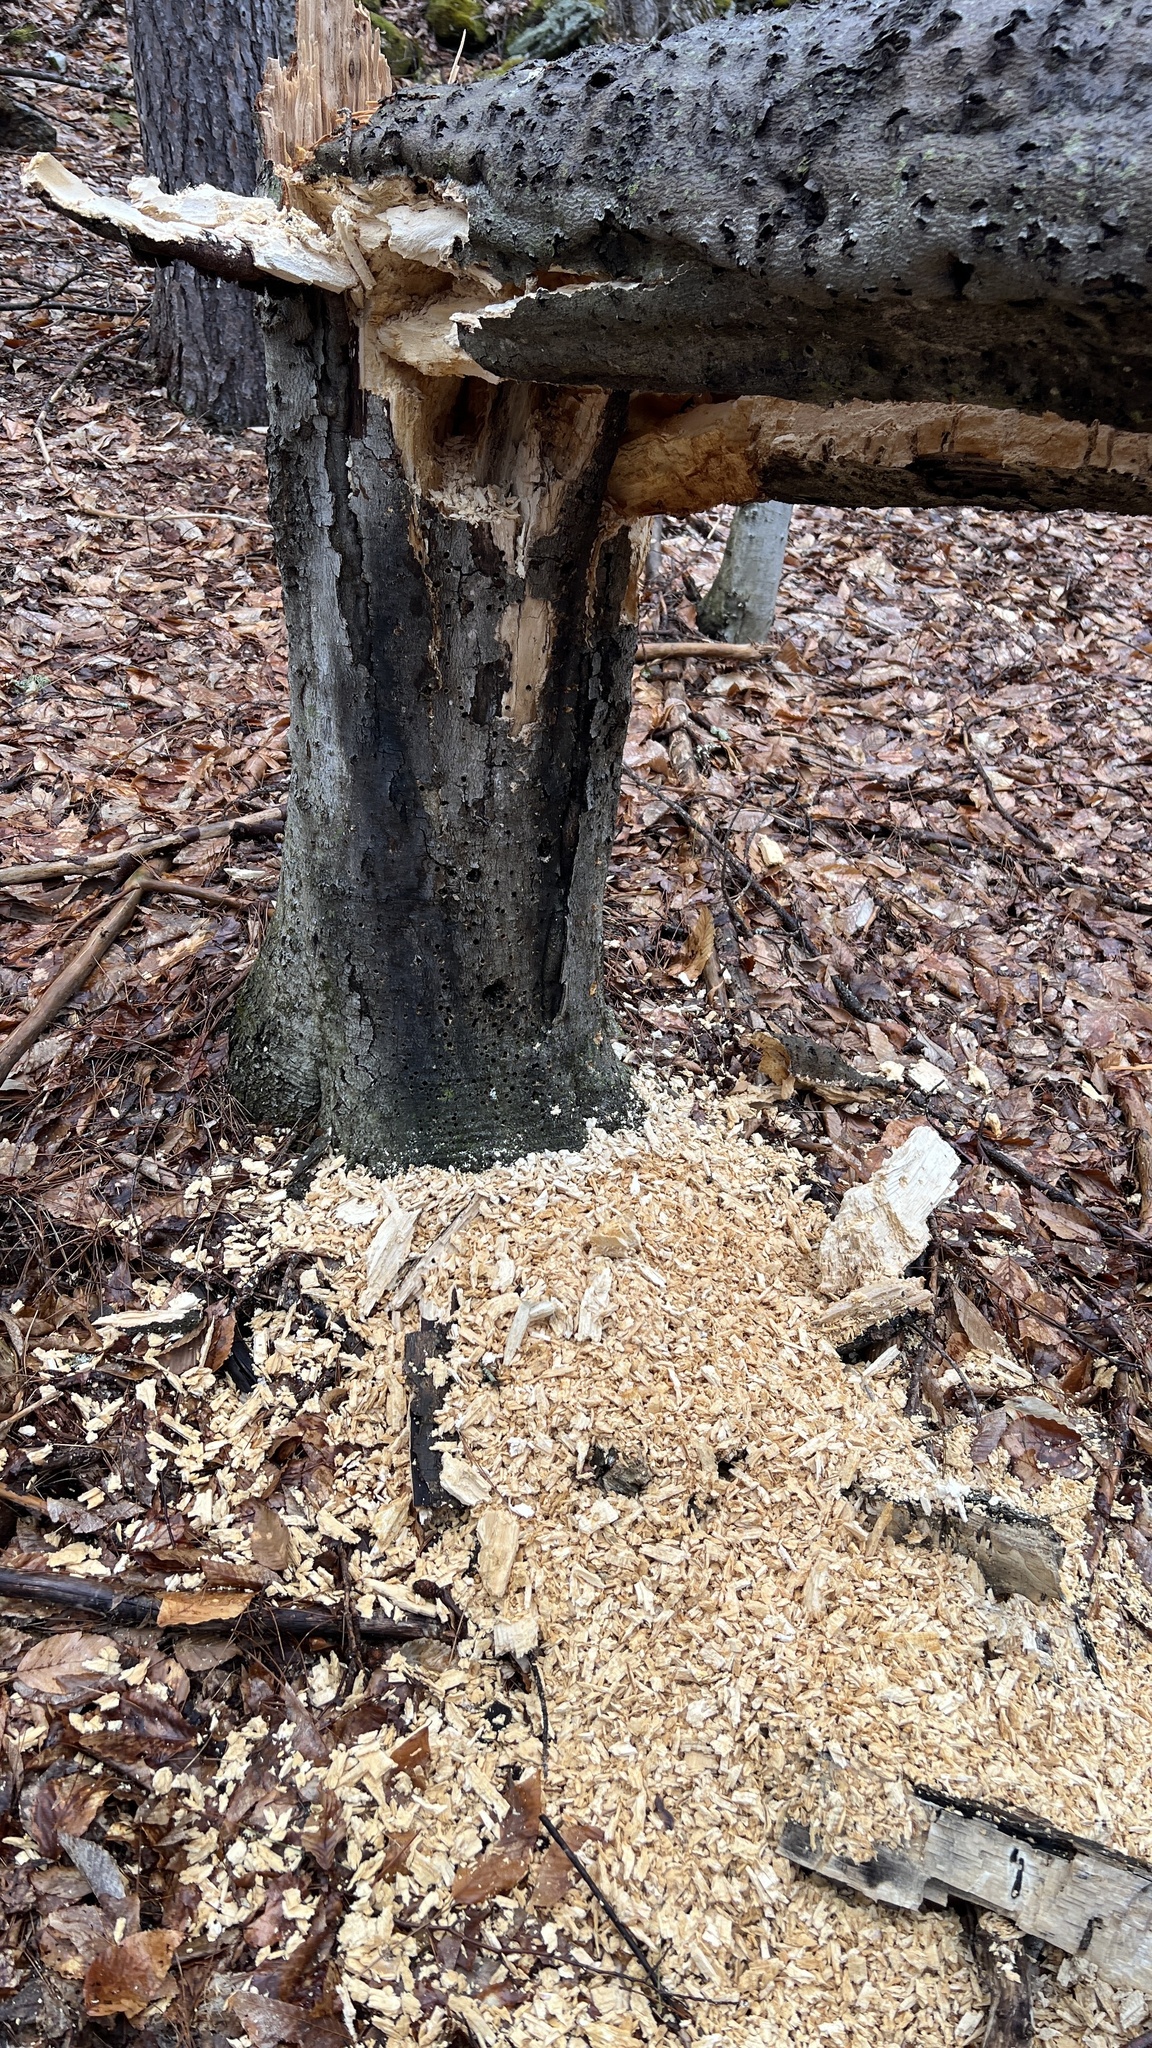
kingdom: Animalia
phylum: Chordata
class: Aves
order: Piciformes
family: Picidae
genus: Dryocopus
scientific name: Dryocopus pileatus
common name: Pileated woodpecker
